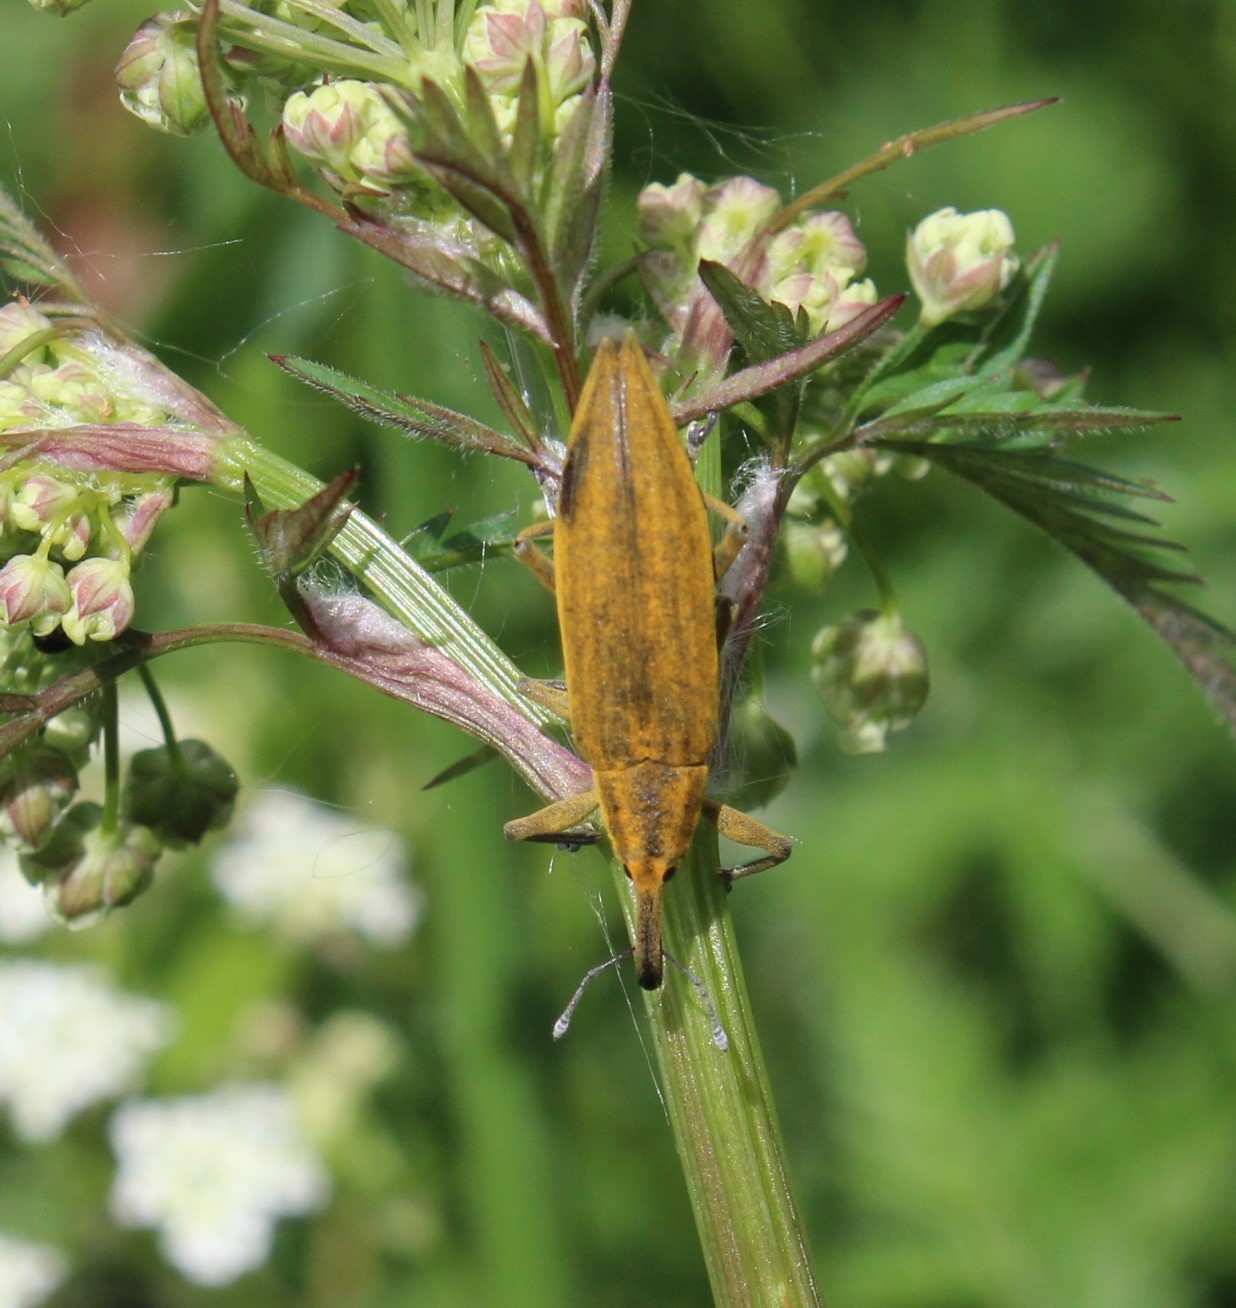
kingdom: Animalia
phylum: Arthropoda
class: Insecta
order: Coleoptera
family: Curculionidae
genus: Lixus
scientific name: Lixus iridis
